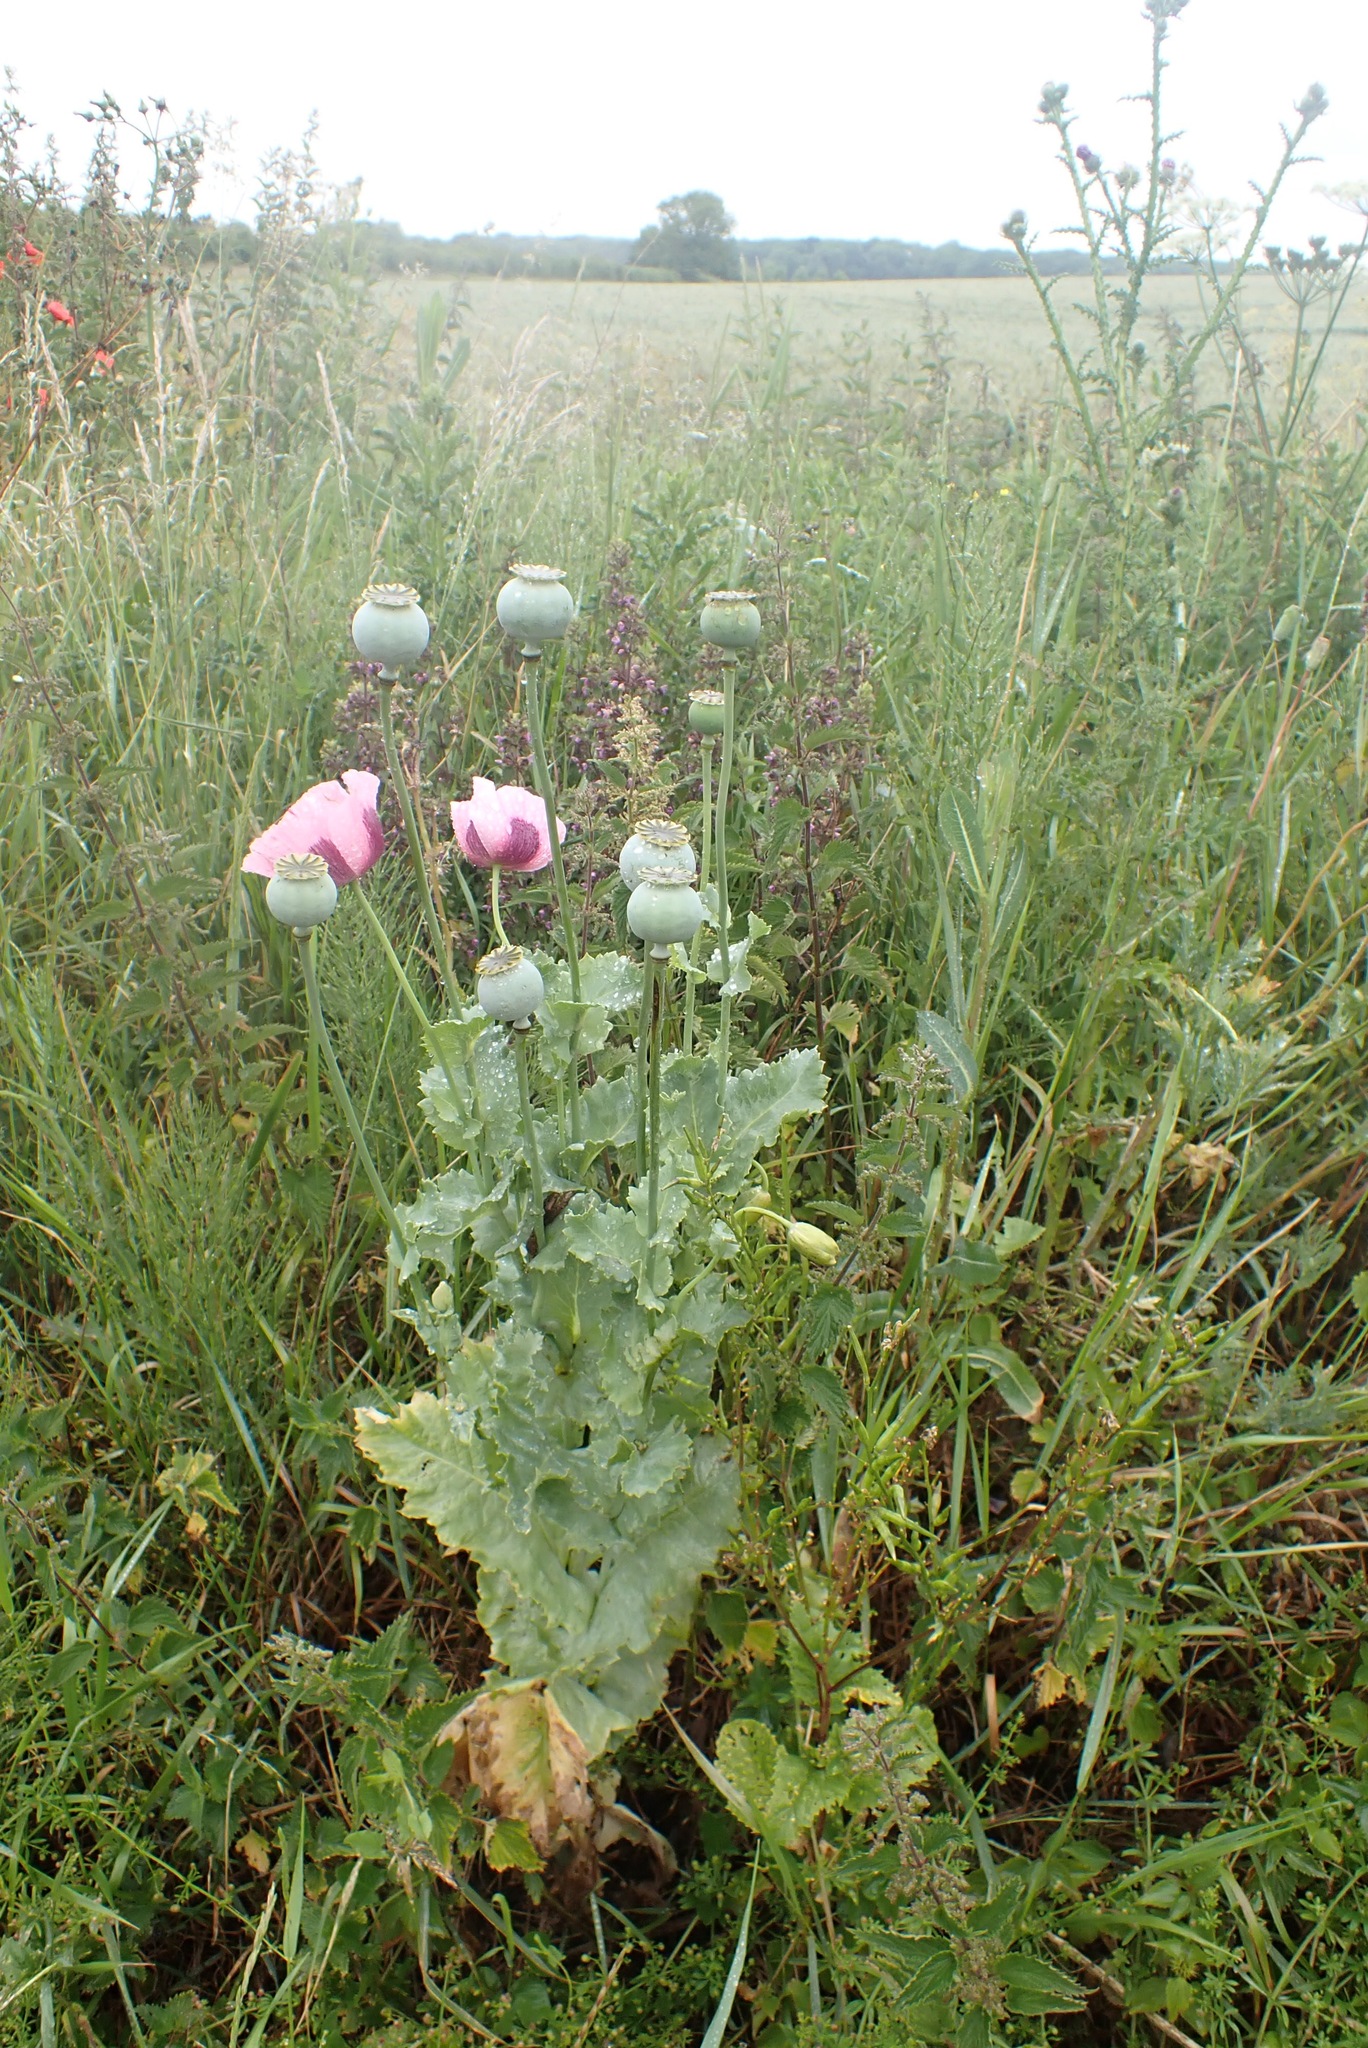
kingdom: Plantae
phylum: Tracheophyta
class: Magnoliopsida
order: Ranunculales
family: Papaveraceae
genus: Papaver
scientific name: Papaver somniferum
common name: Opium poppy
